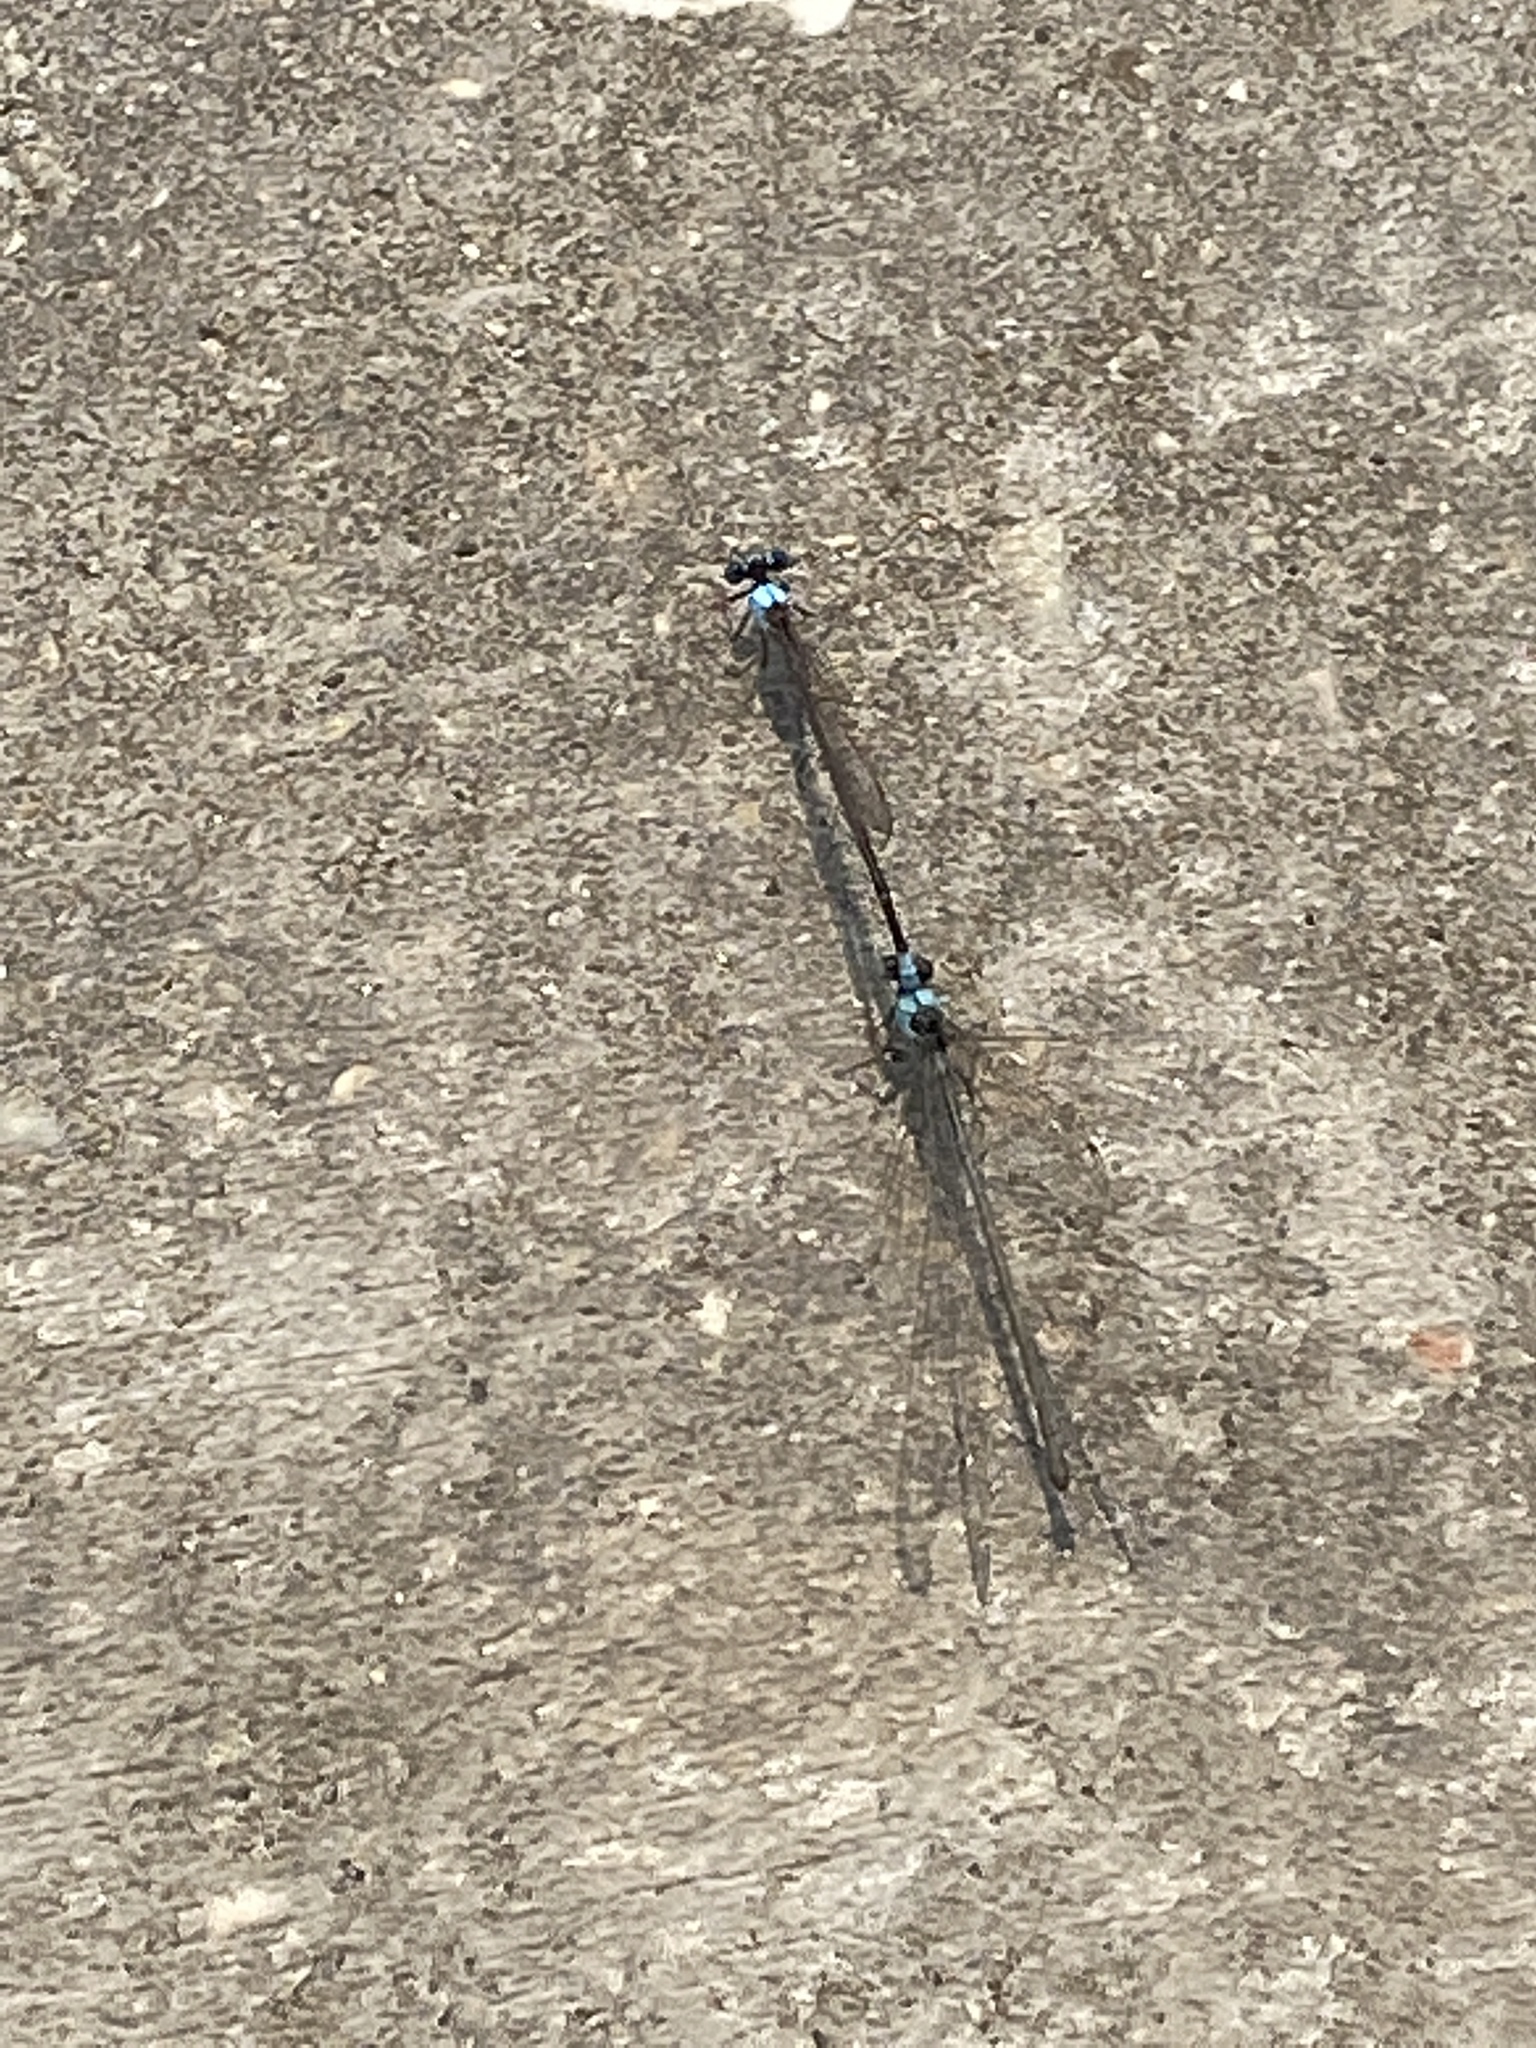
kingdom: Animalia
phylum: Arthropoda
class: Insecta
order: Odonata
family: Coenagrionidae
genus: Argia
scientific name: Argia apicalis
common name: Blue-fronted dancer
